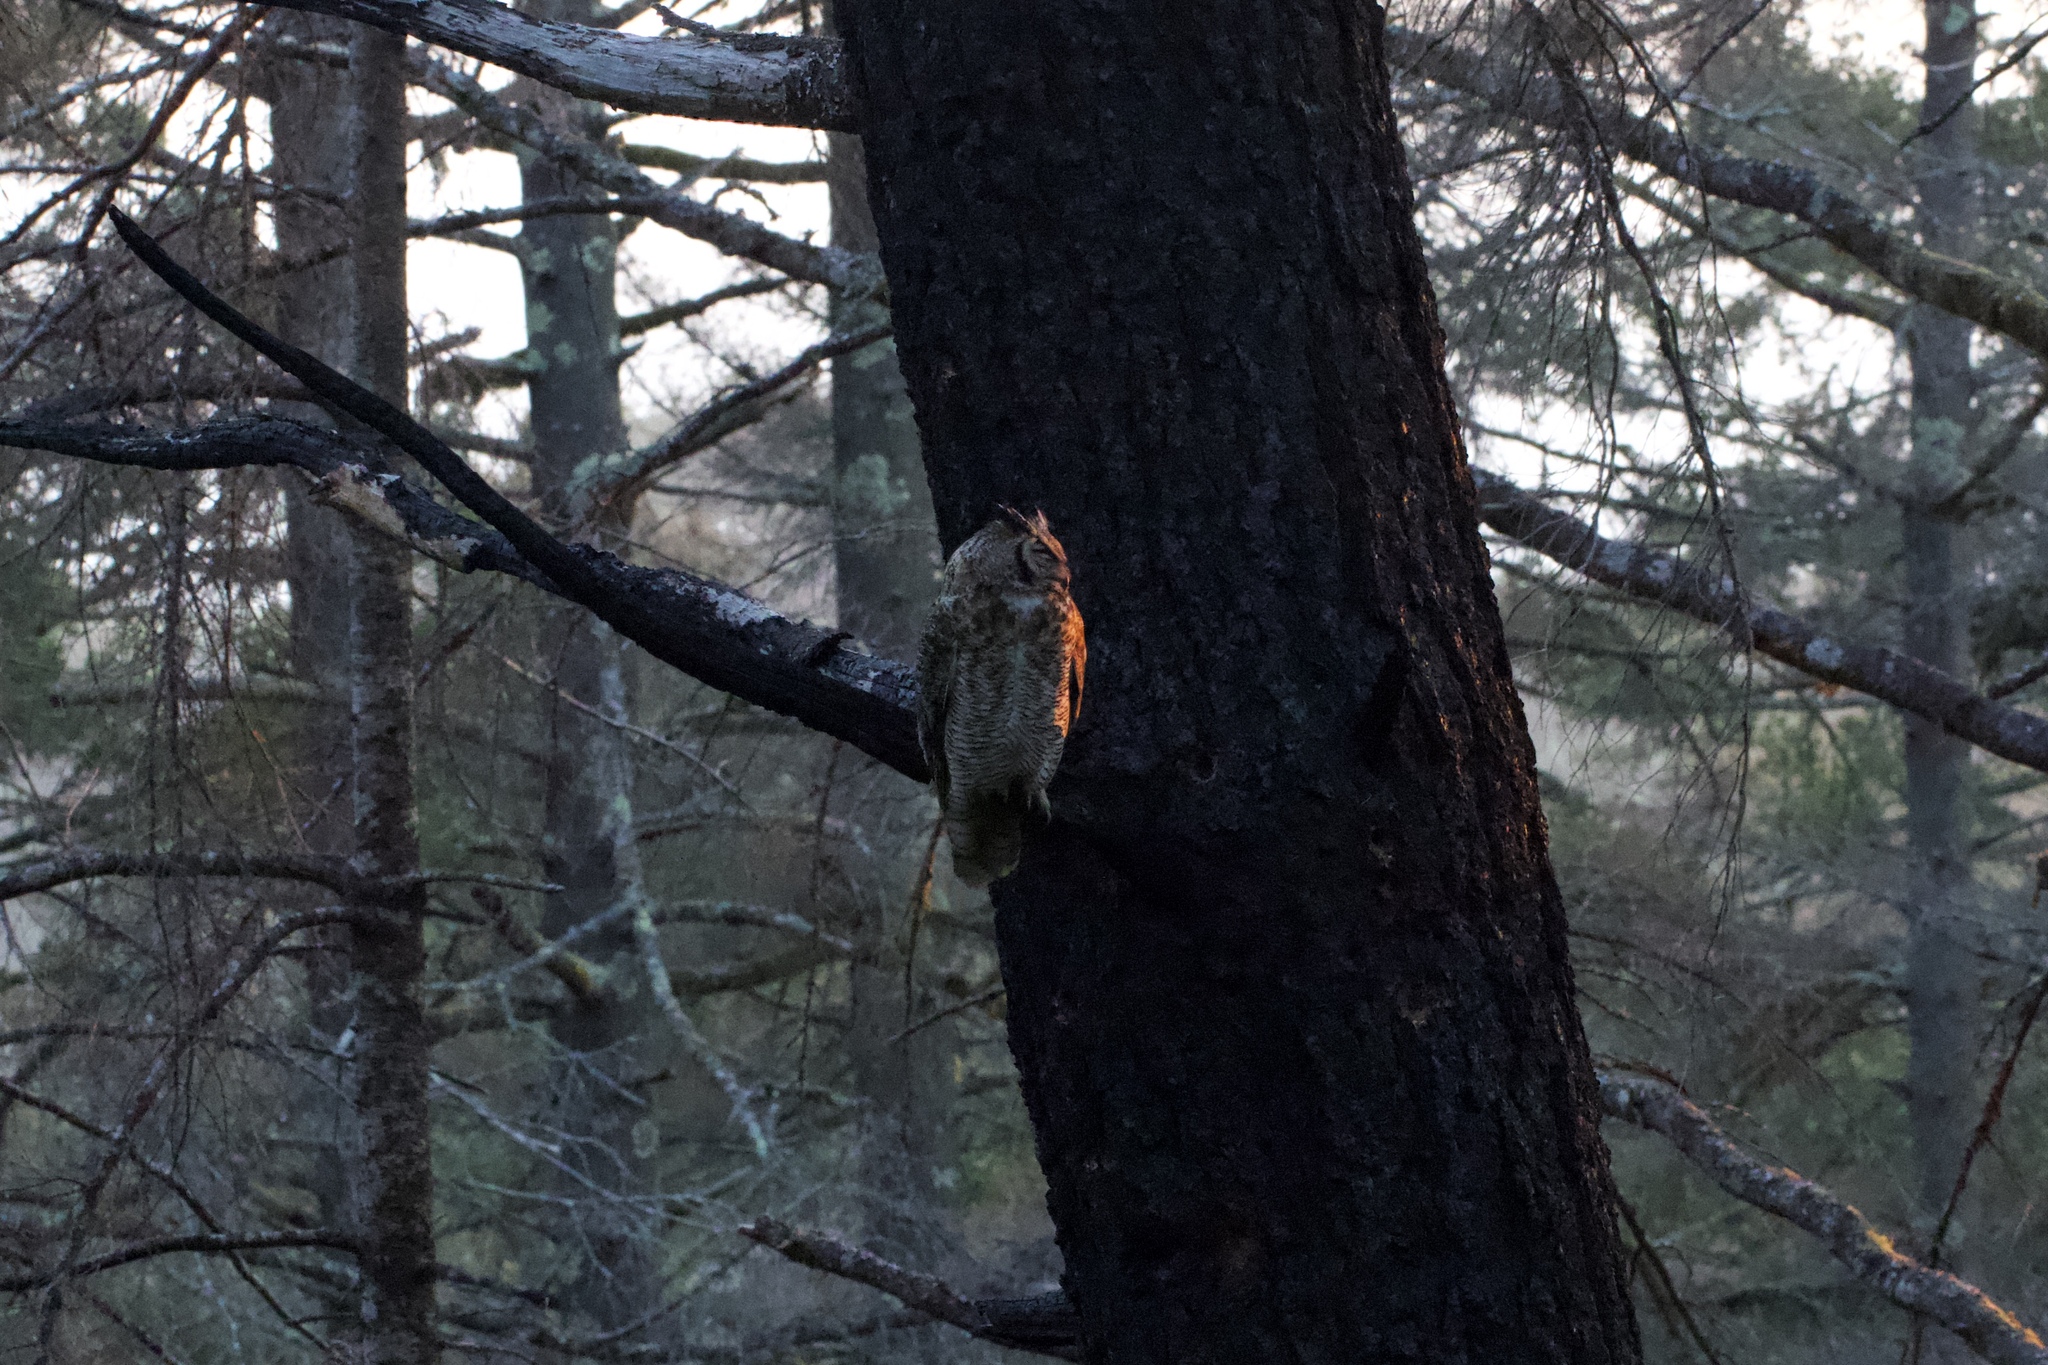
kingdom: Animalia
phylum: Chordata
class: Aves
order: Strigiformes
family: Strigidae
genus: Bubo
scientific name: Bubo virginianus
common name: Great horned owl
